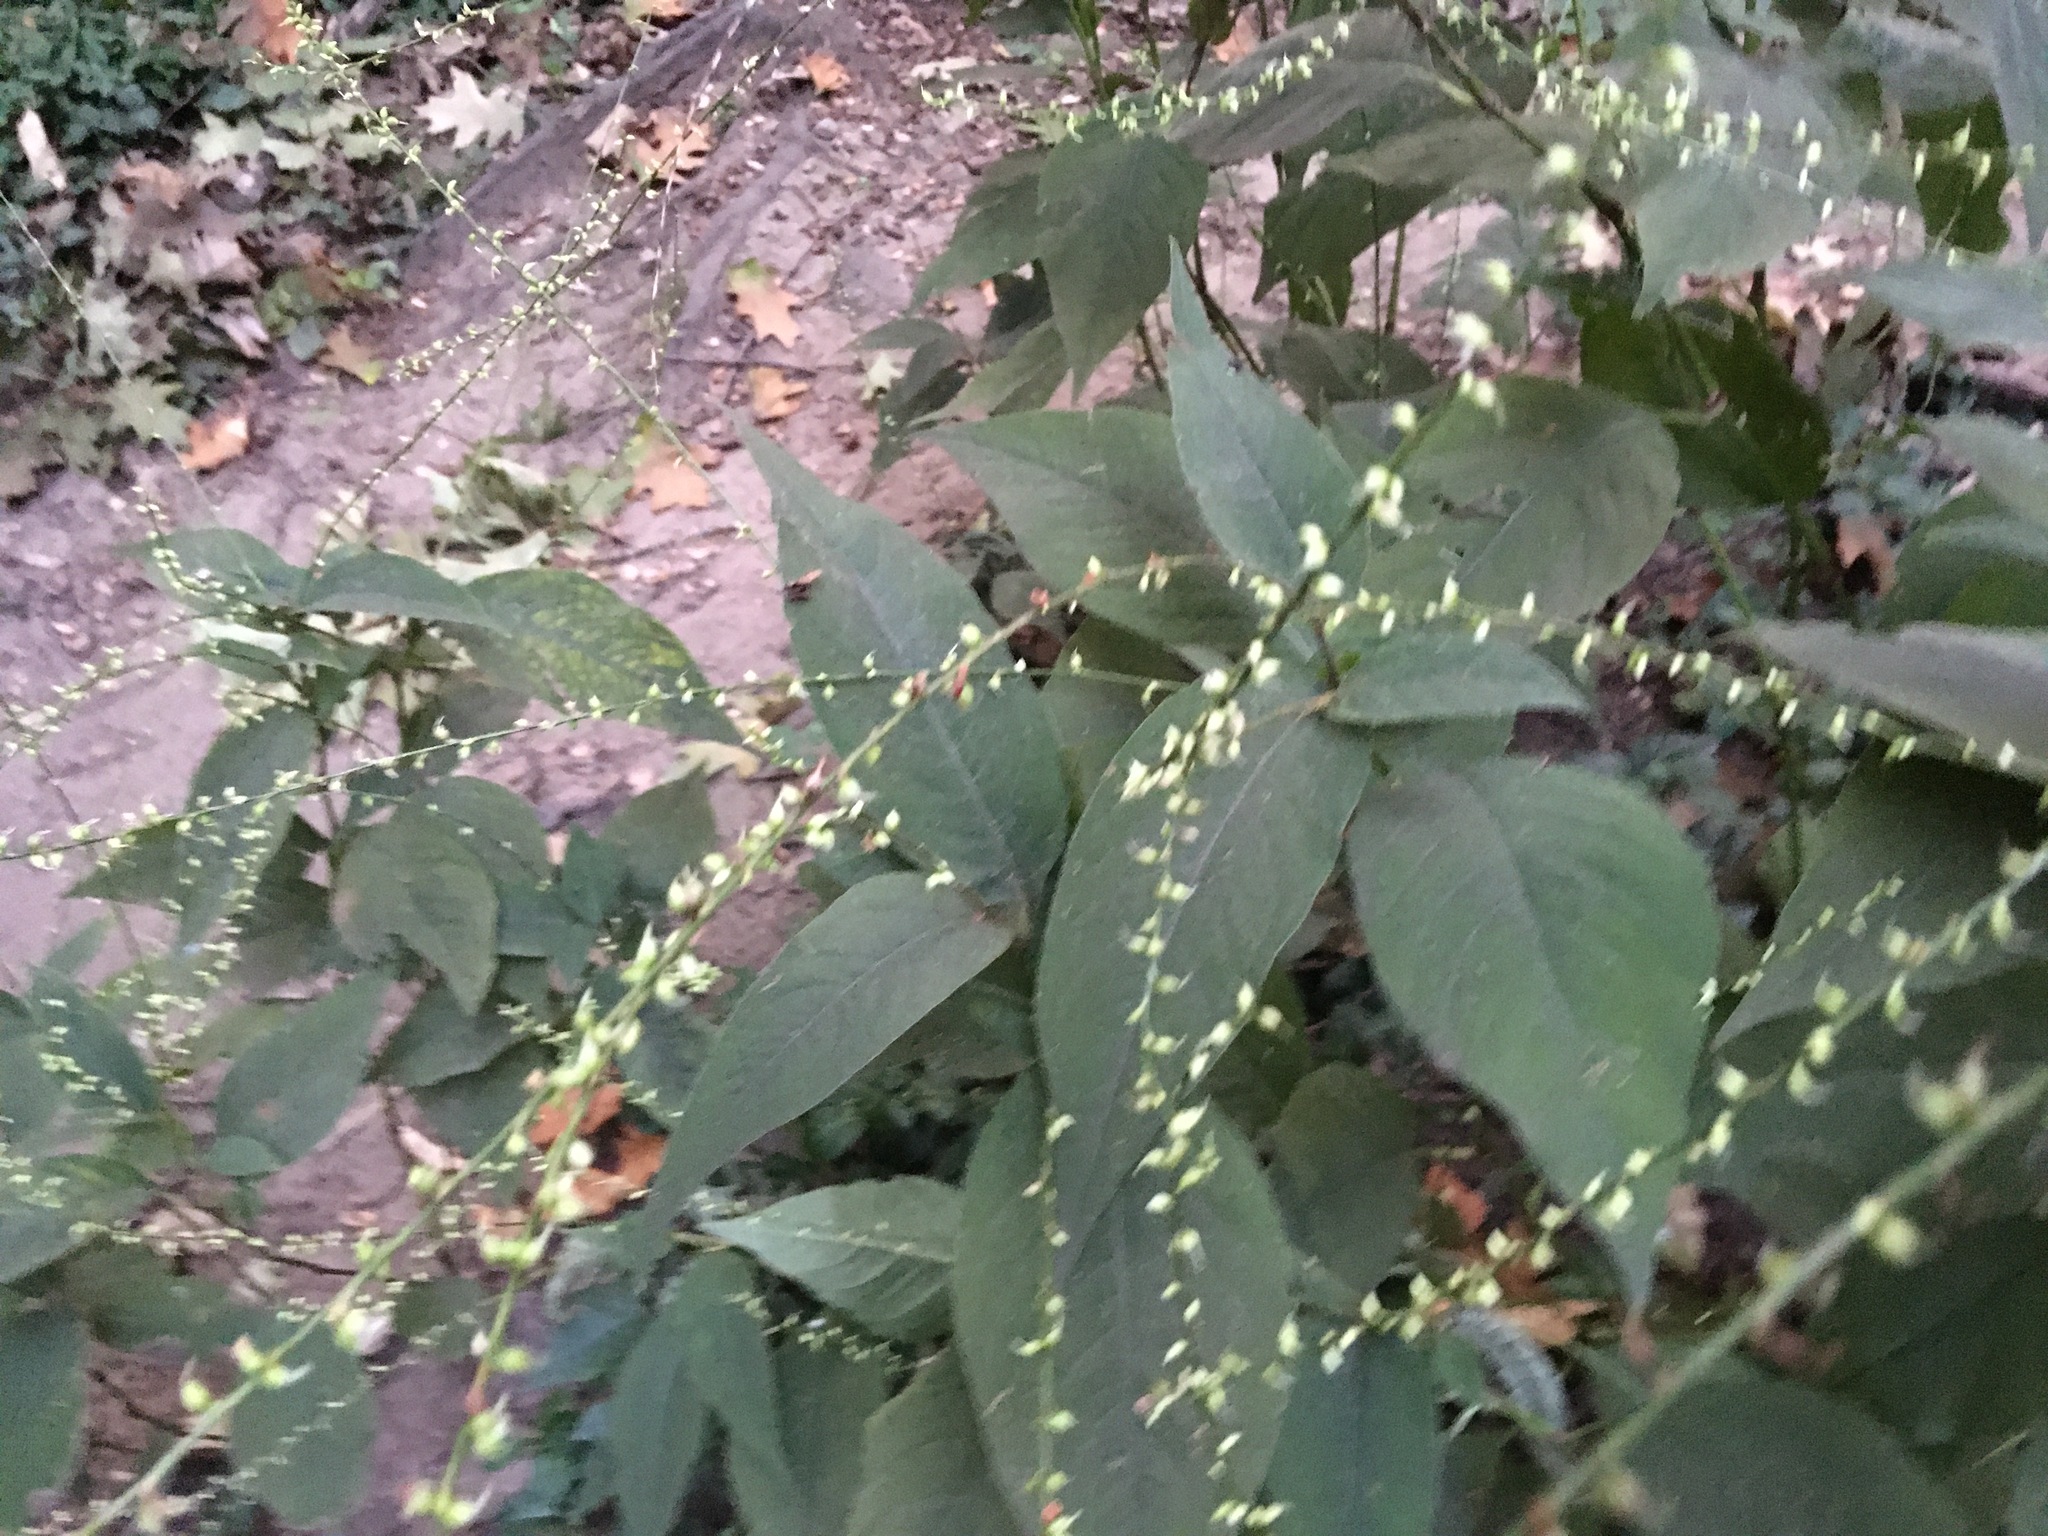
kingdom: Plantae
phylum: Tracheophyta
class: Magnoliopsida
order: Caryophyllales
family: Polygonaceae
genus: Persicaria
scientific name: Persicaria virginiana
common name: Jumpseed
